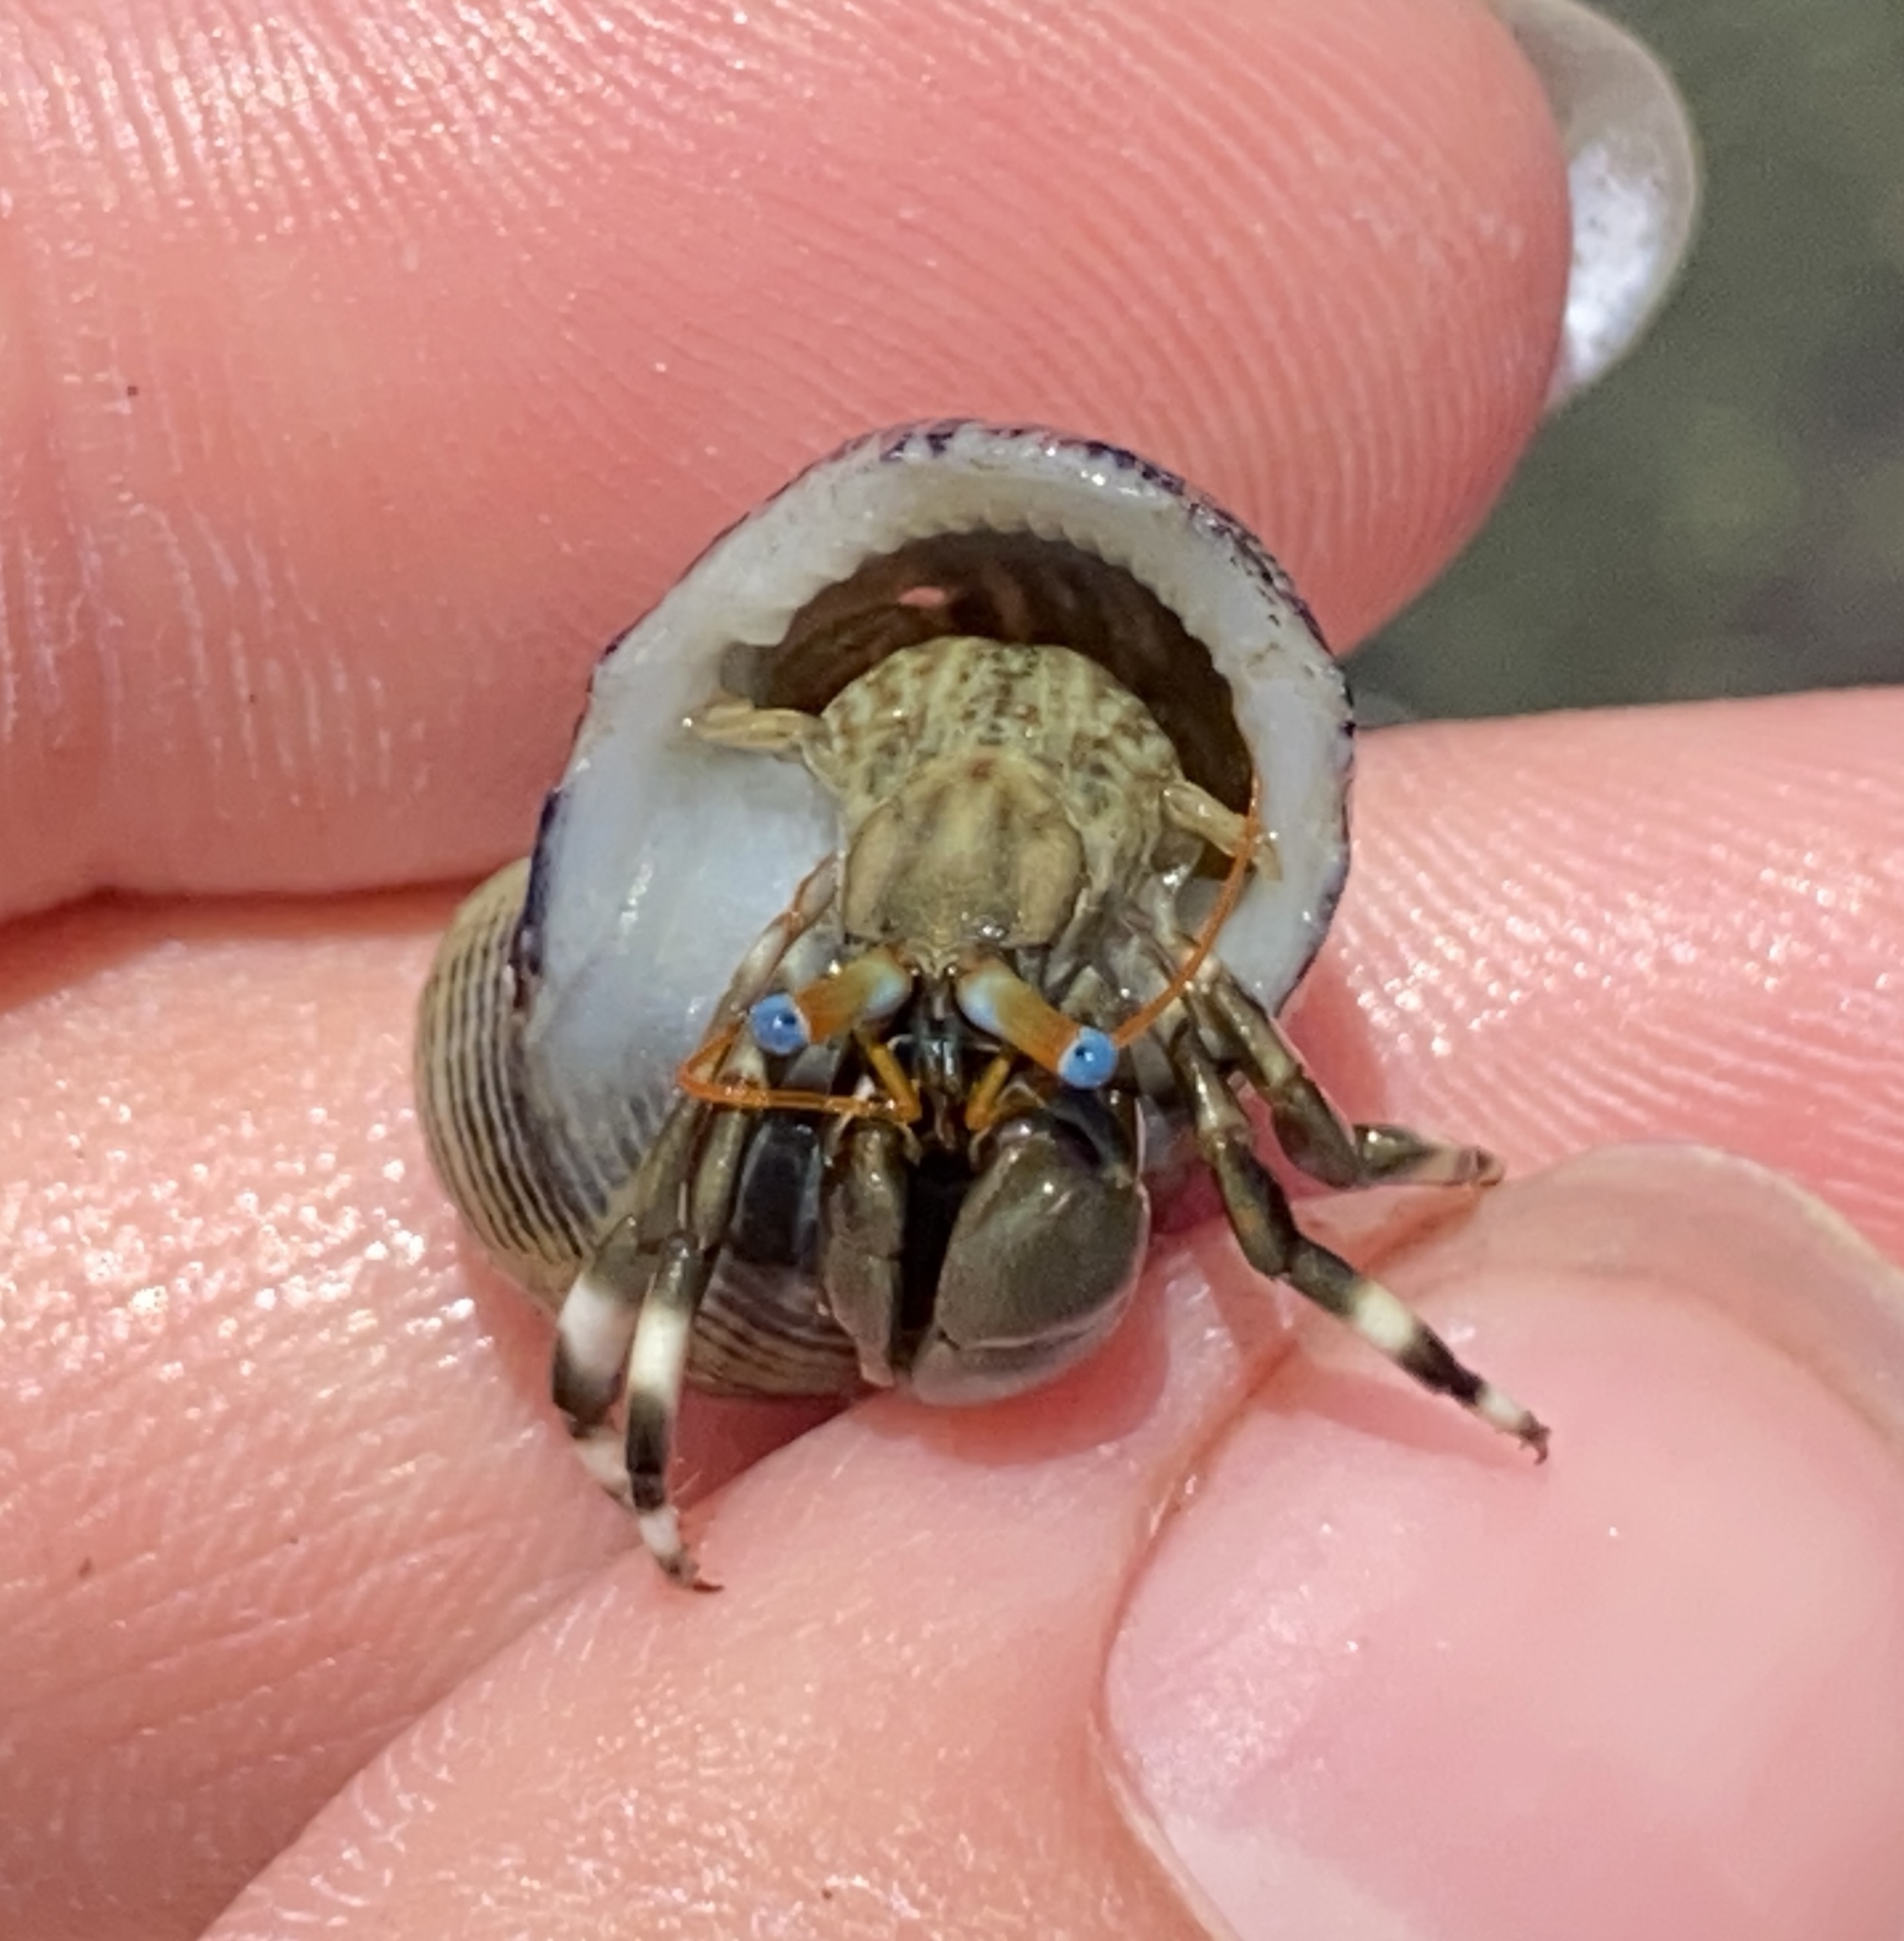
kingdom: Animalia
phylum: Arthropoda
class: Malacostraca
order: Decapoda
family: Diogenidae
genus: Calcinus
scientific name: Calcinus seurati
